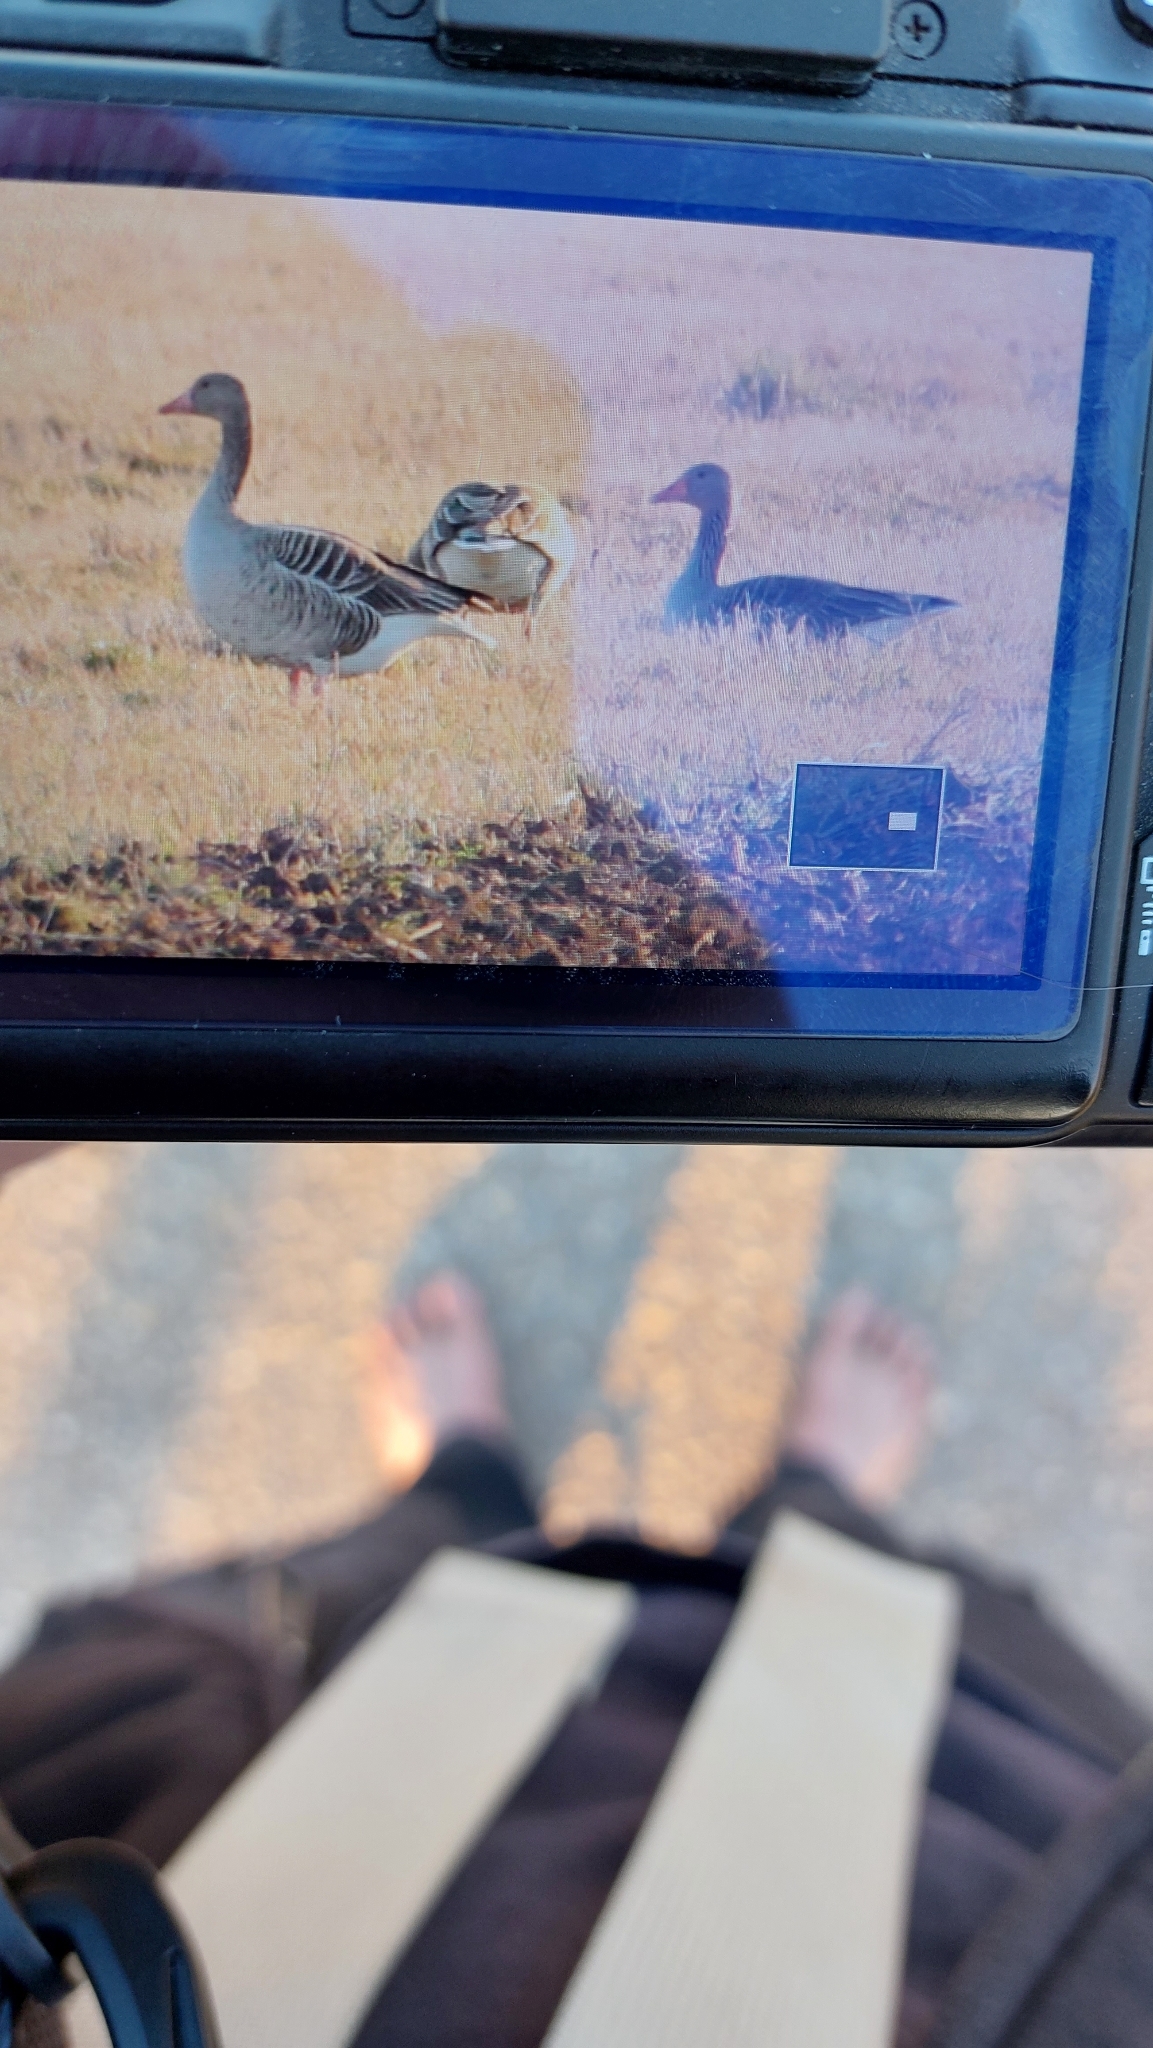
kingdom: Animalia
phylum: Chordata
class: Aves
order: Anseriformes
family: Anatidae
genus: Anser
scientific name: Anser anser
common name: Greylag goose
